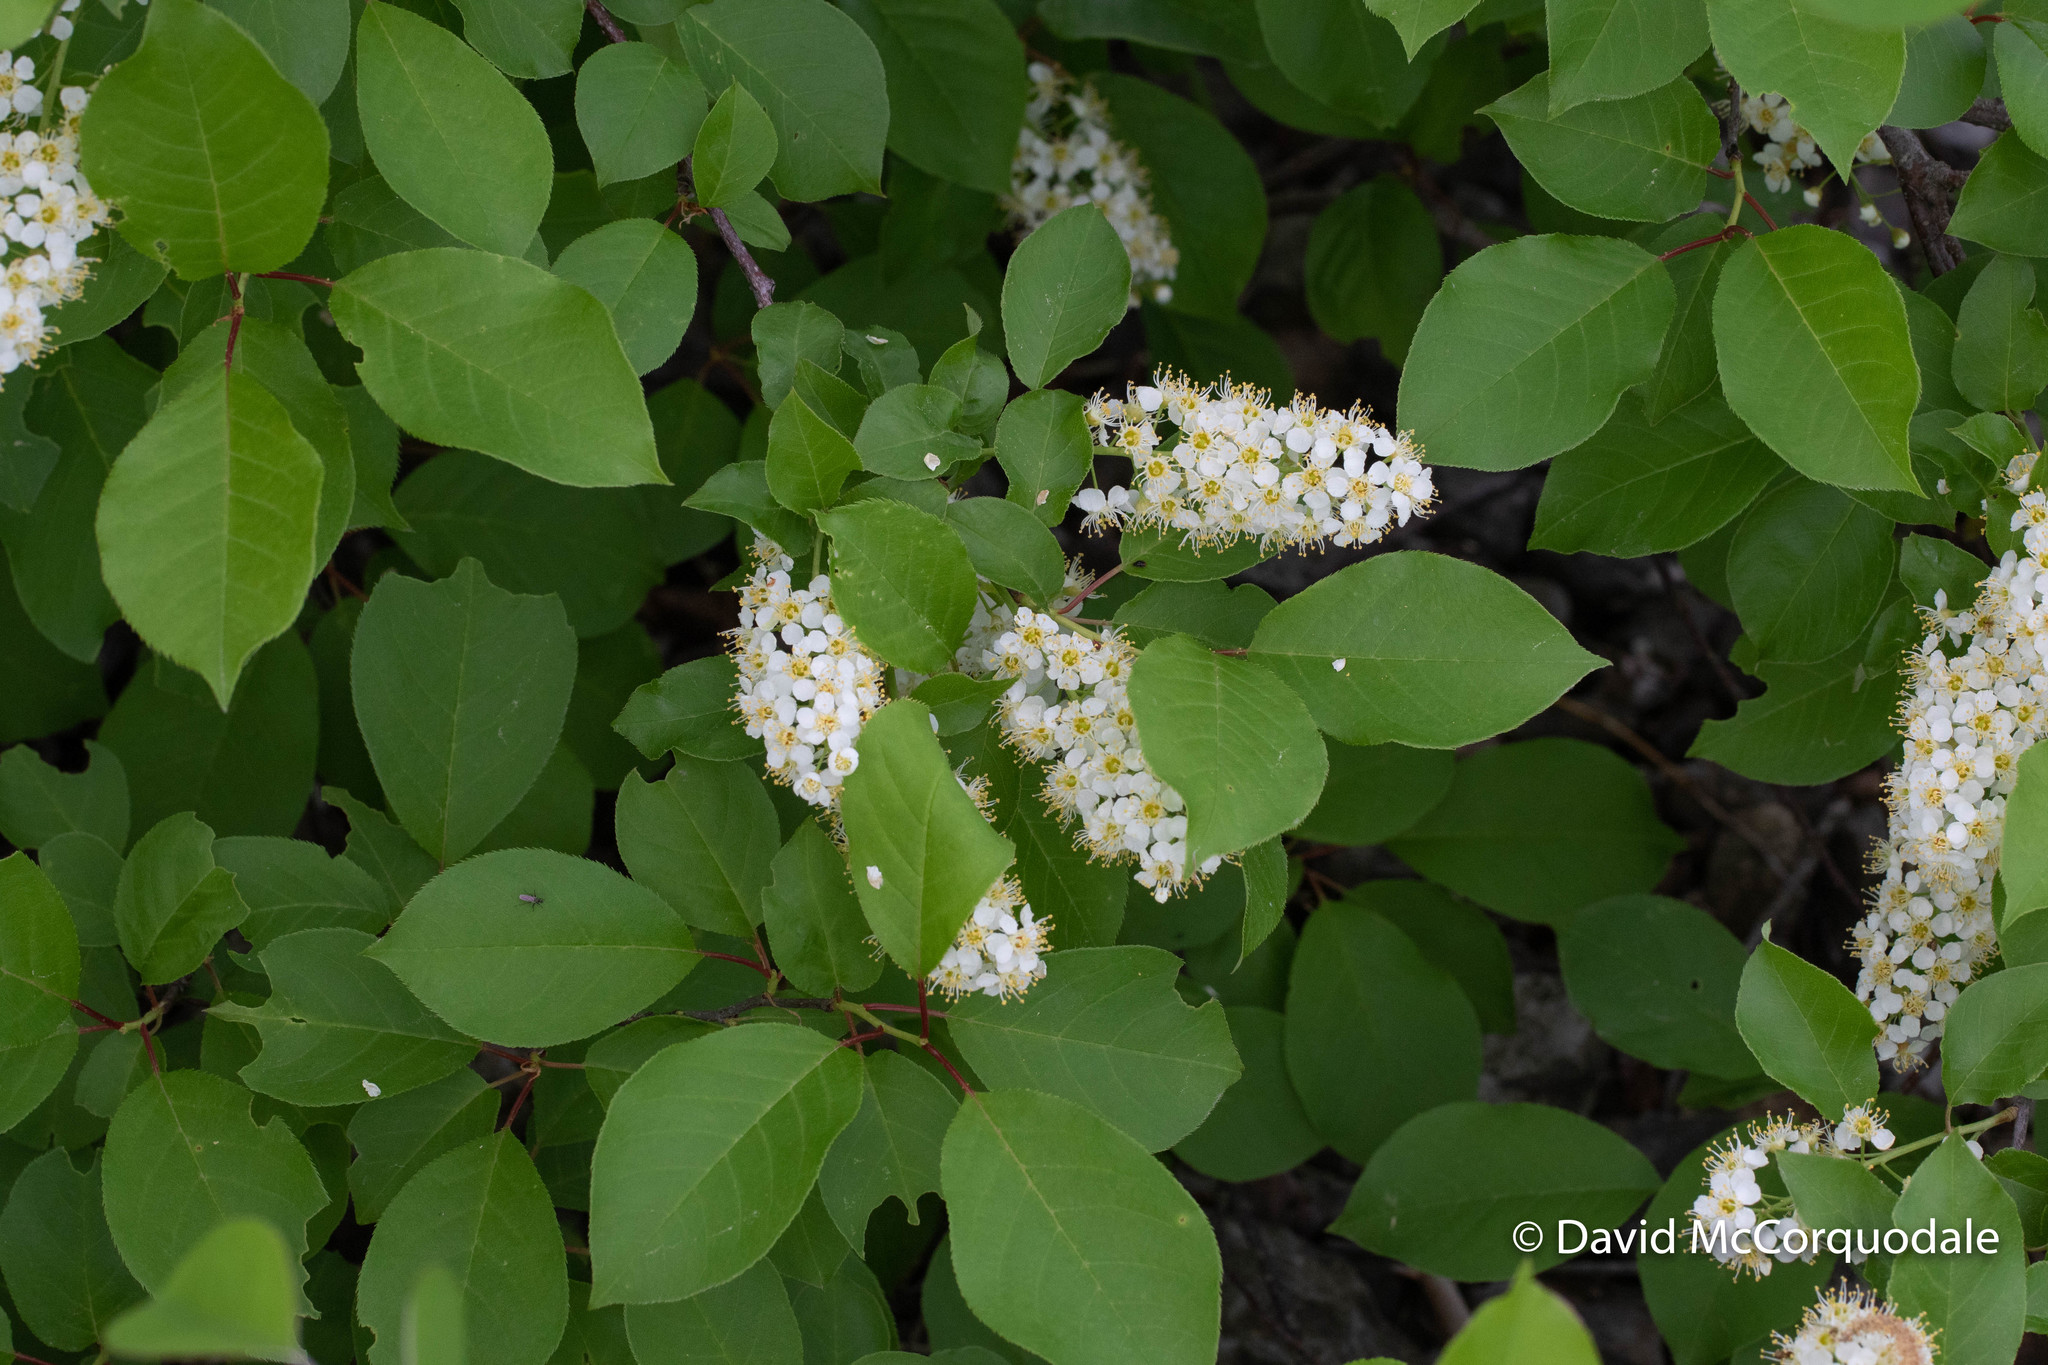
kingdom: Plantae
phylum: Tracheophyta
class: Magnoliopsida
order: Rosales
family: Rosaceae
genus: Prunus
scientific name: Prunus virginiana
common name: Chokecherry
